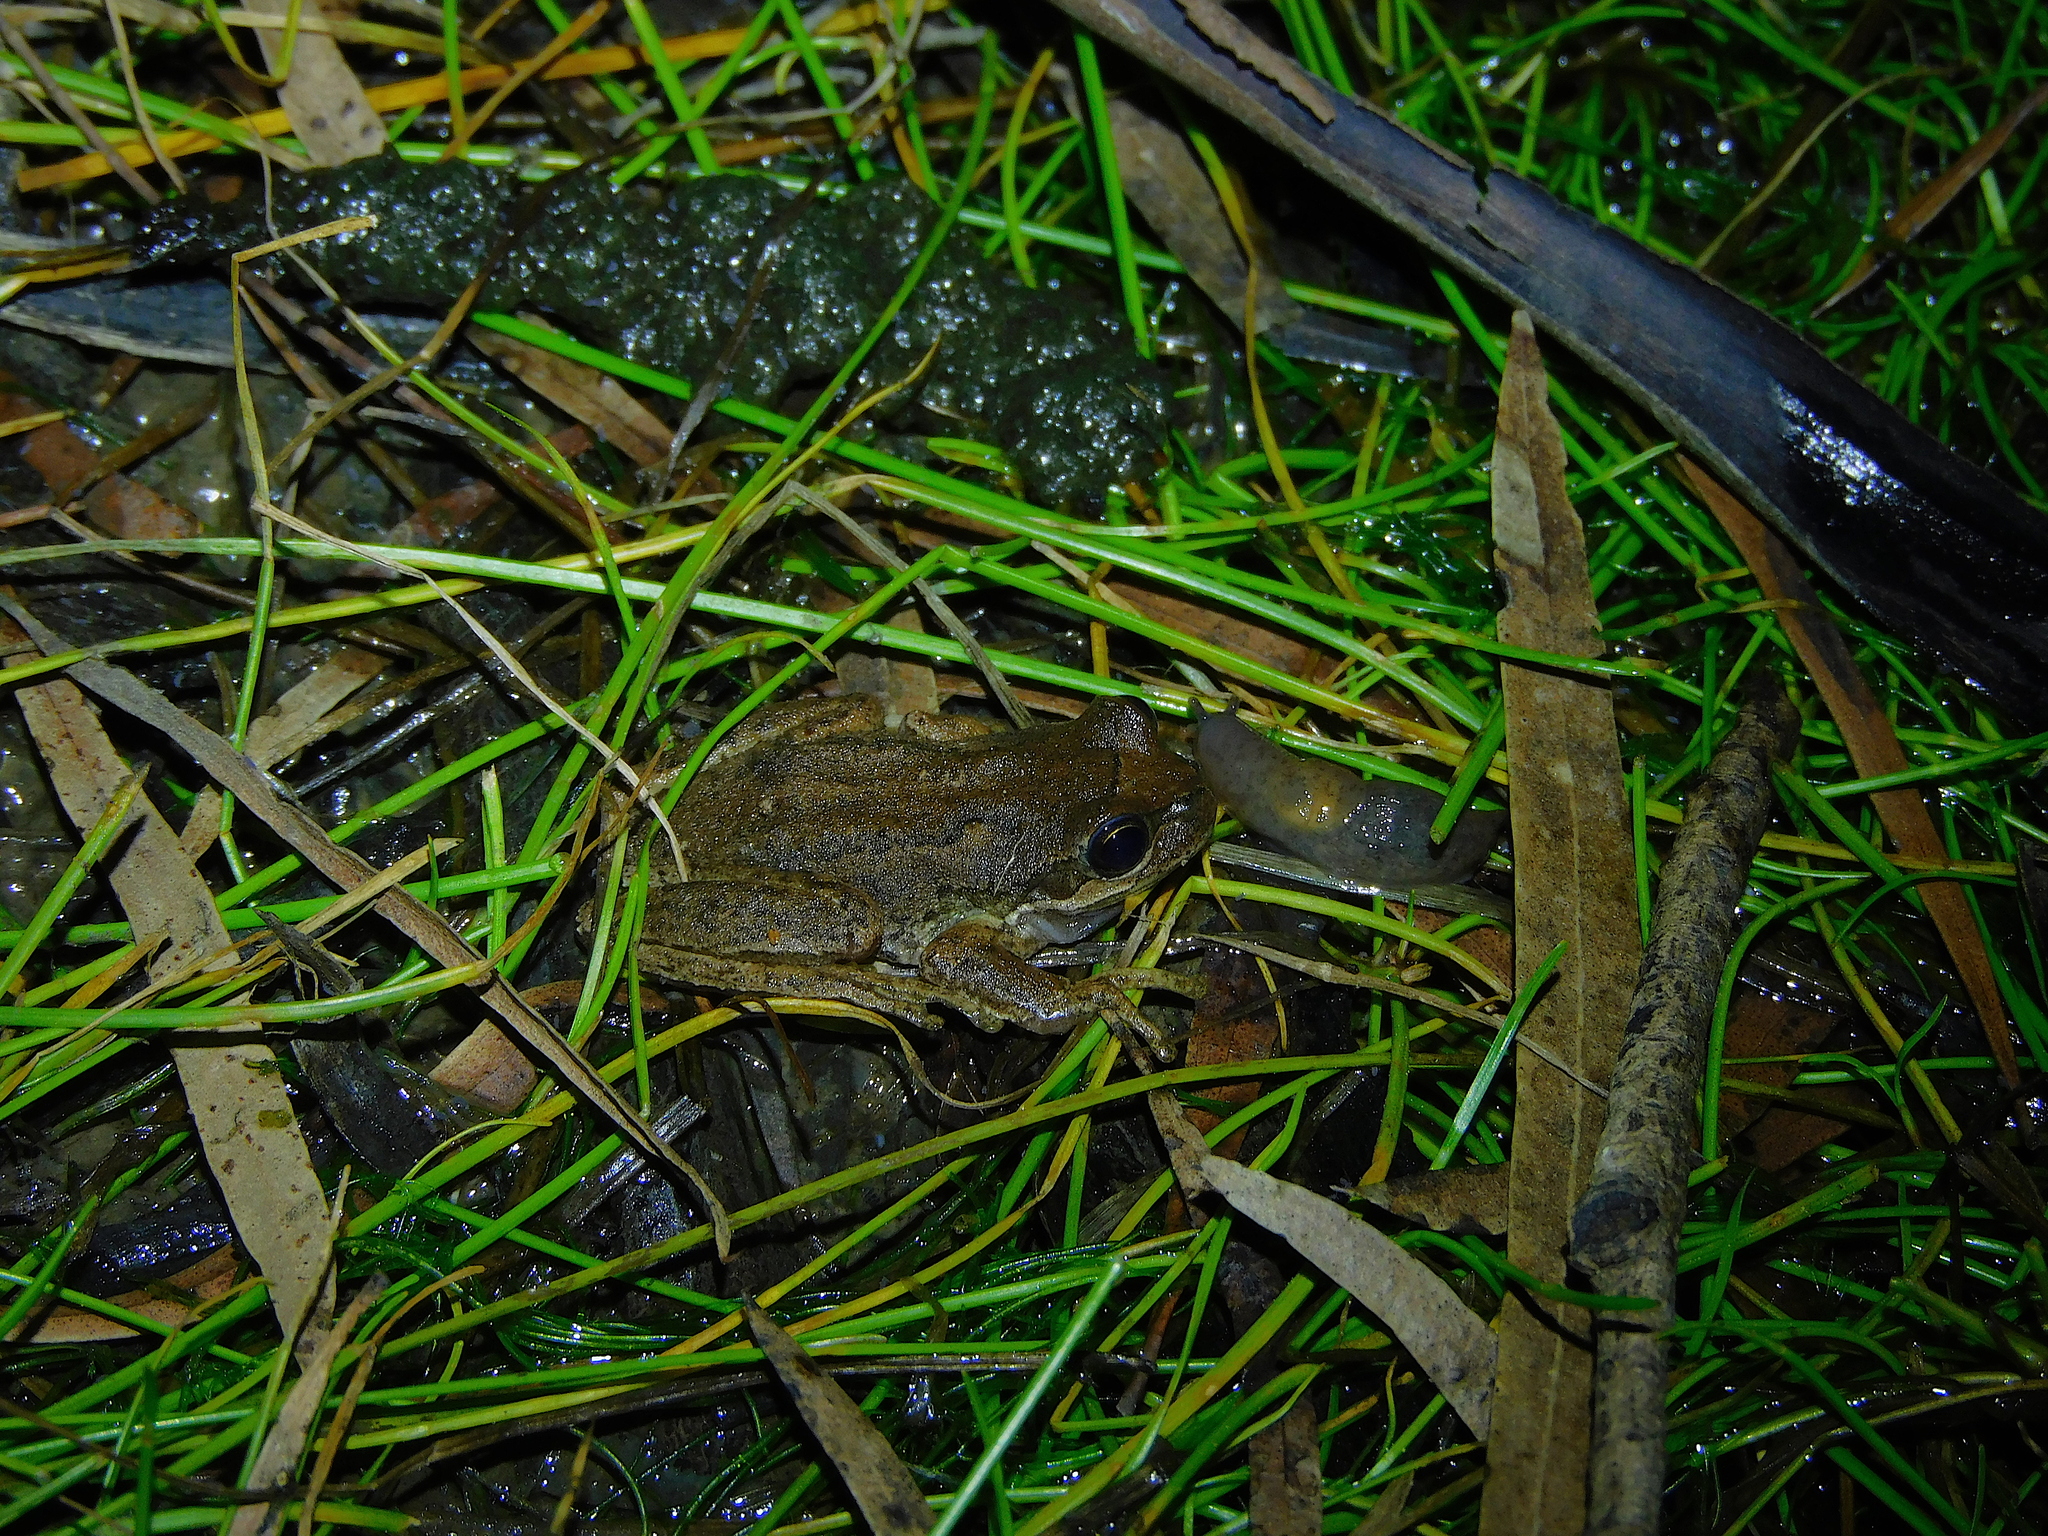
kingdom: Animalia
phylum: Chordata
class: Amphibia
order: Anura
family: Pelodryadidae
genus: Litoria
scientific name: Litoria ewingii
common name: Southern brown tree frog
